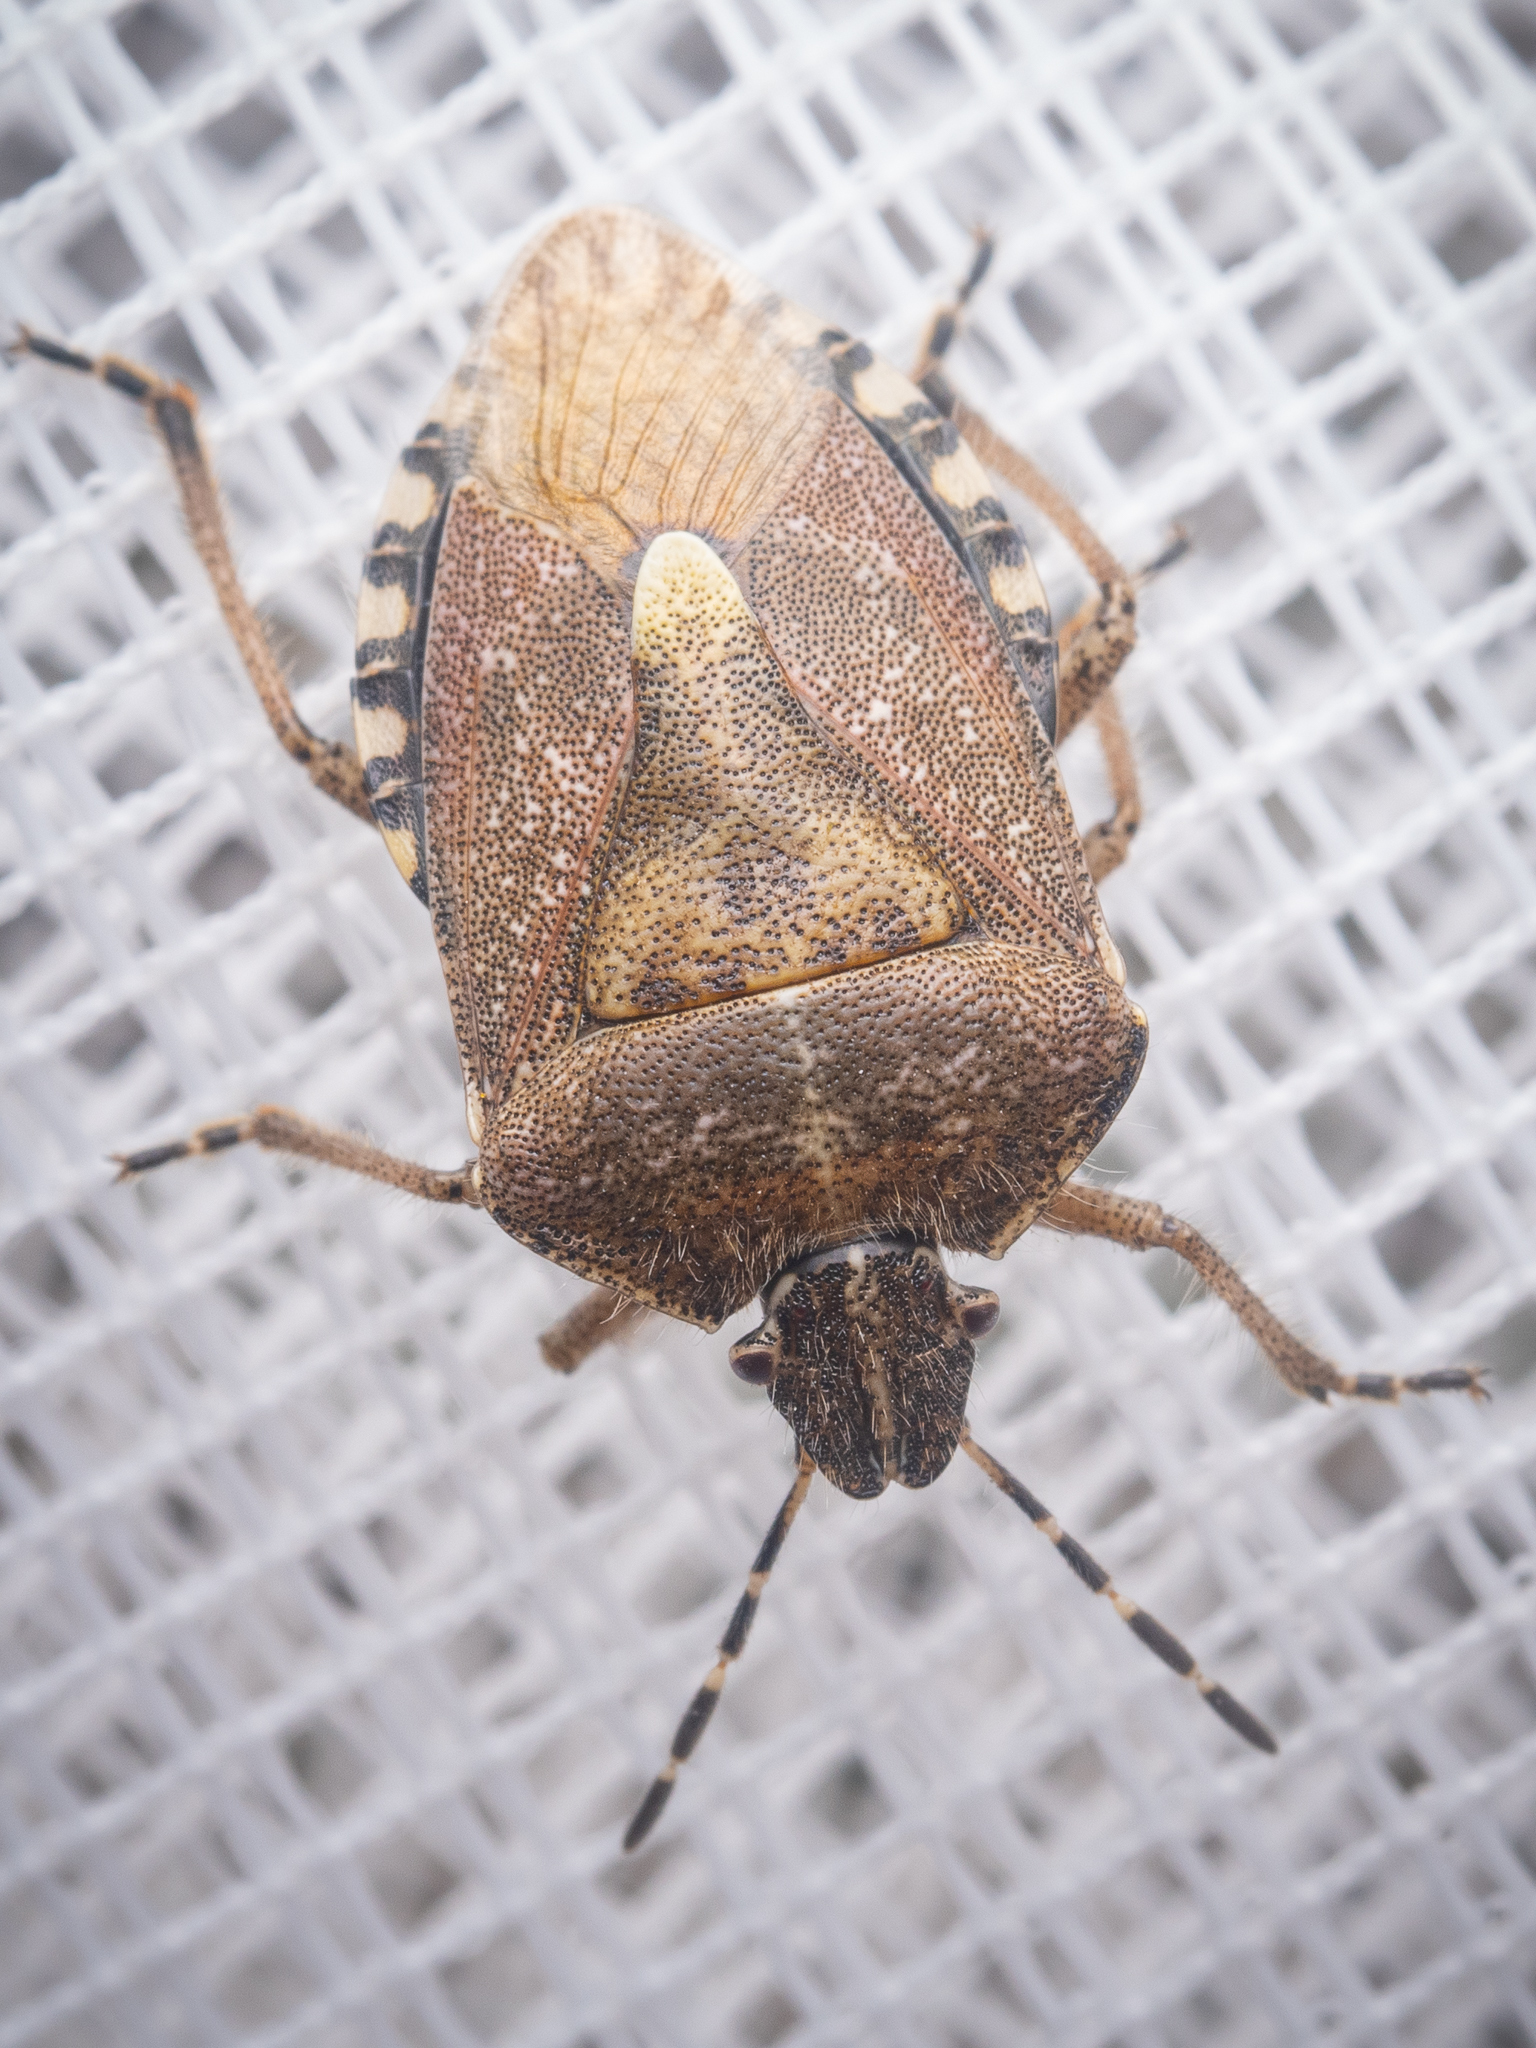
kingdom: Animalia
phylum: Arthropoda
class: Insecta
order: Hemiptera
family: Pentatomidae
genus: Dolycoris
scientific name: Dolycoris baccarum
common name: Sloe bug
